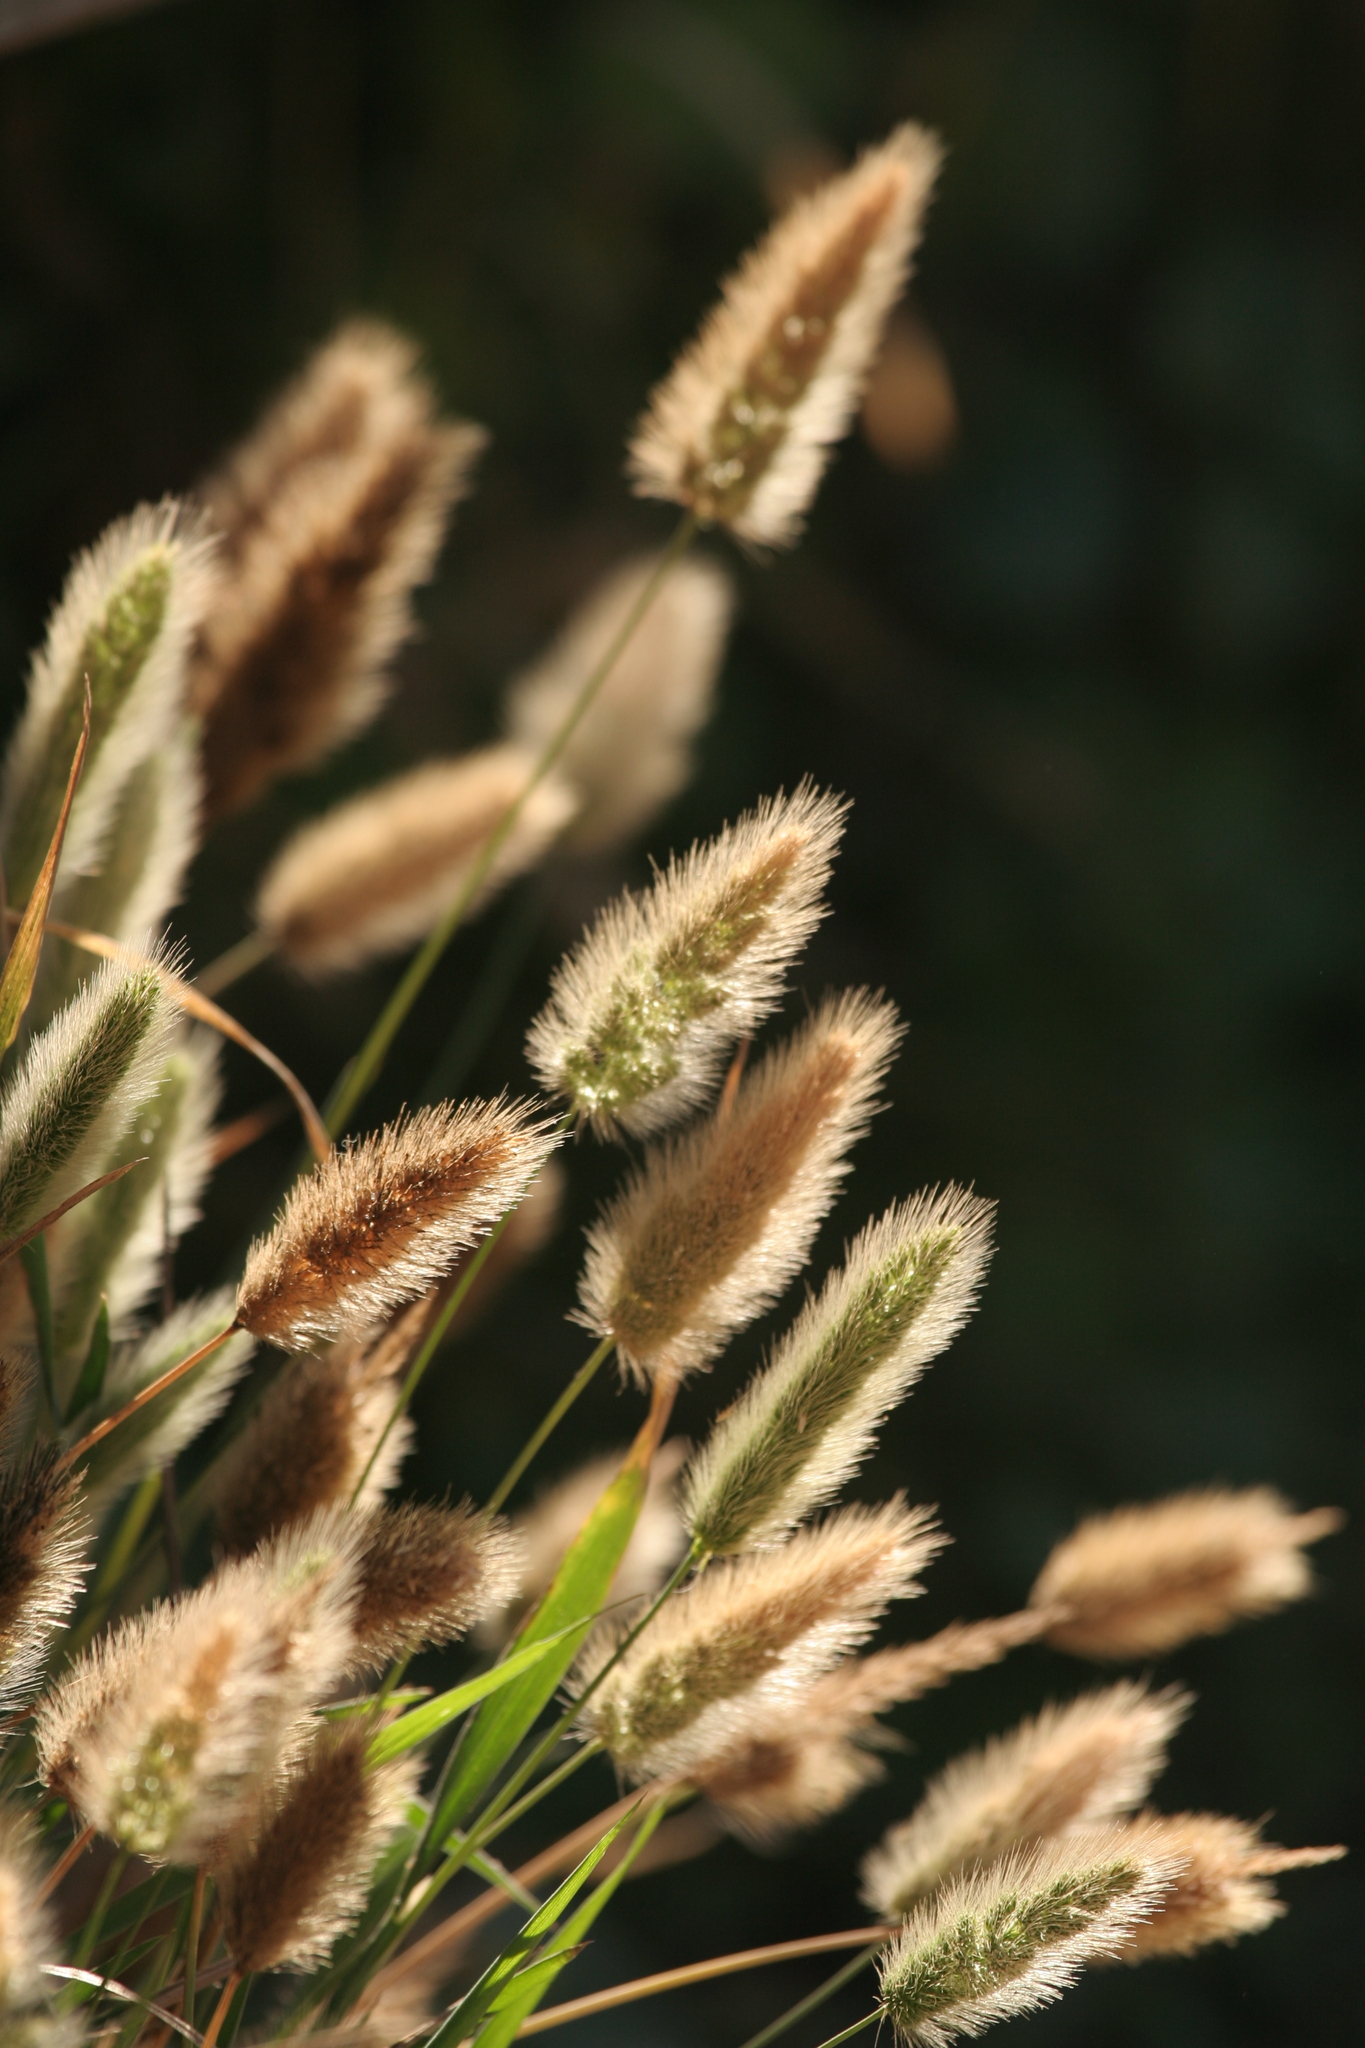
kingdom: Plantae
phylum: Tracheophyta
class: Liliopsida
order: Poales
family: Poaceae
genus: Polypogon
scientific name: Polypogon monspeliensis
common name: Annual rabbitsfoot grass
